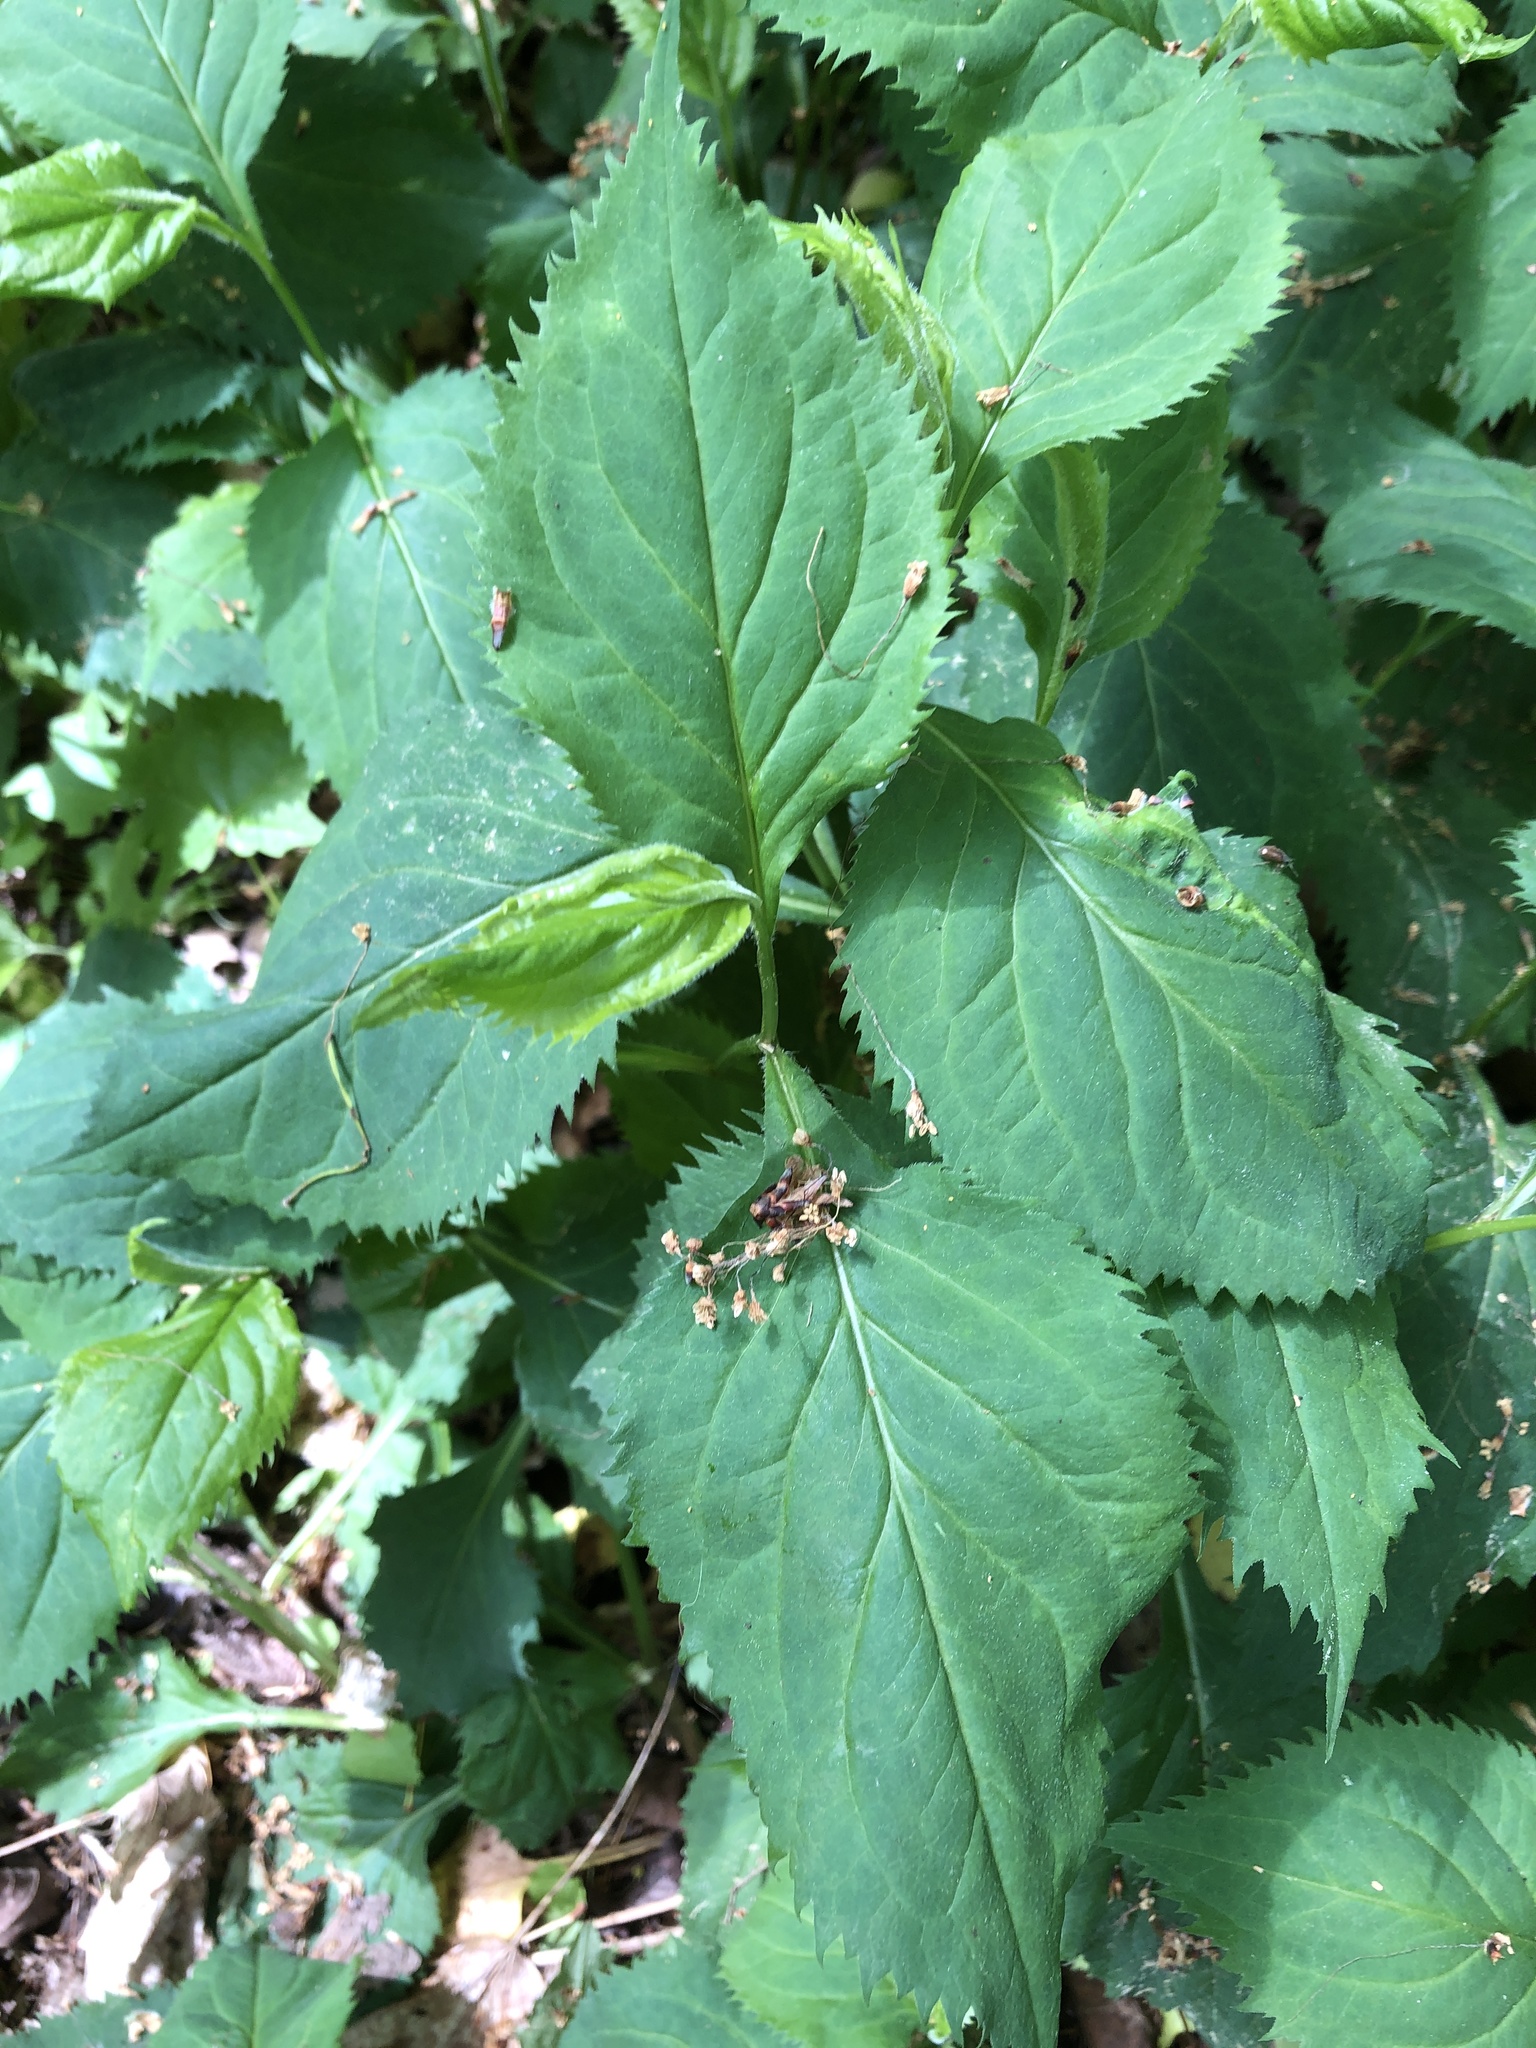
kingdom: Plantae
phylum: Tracheophyta
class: Magnoliopsida
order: Asterales
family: Asteraceae
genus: Solidago
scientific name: Solidago flexicaulis
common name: Zig-zag goldenrod
